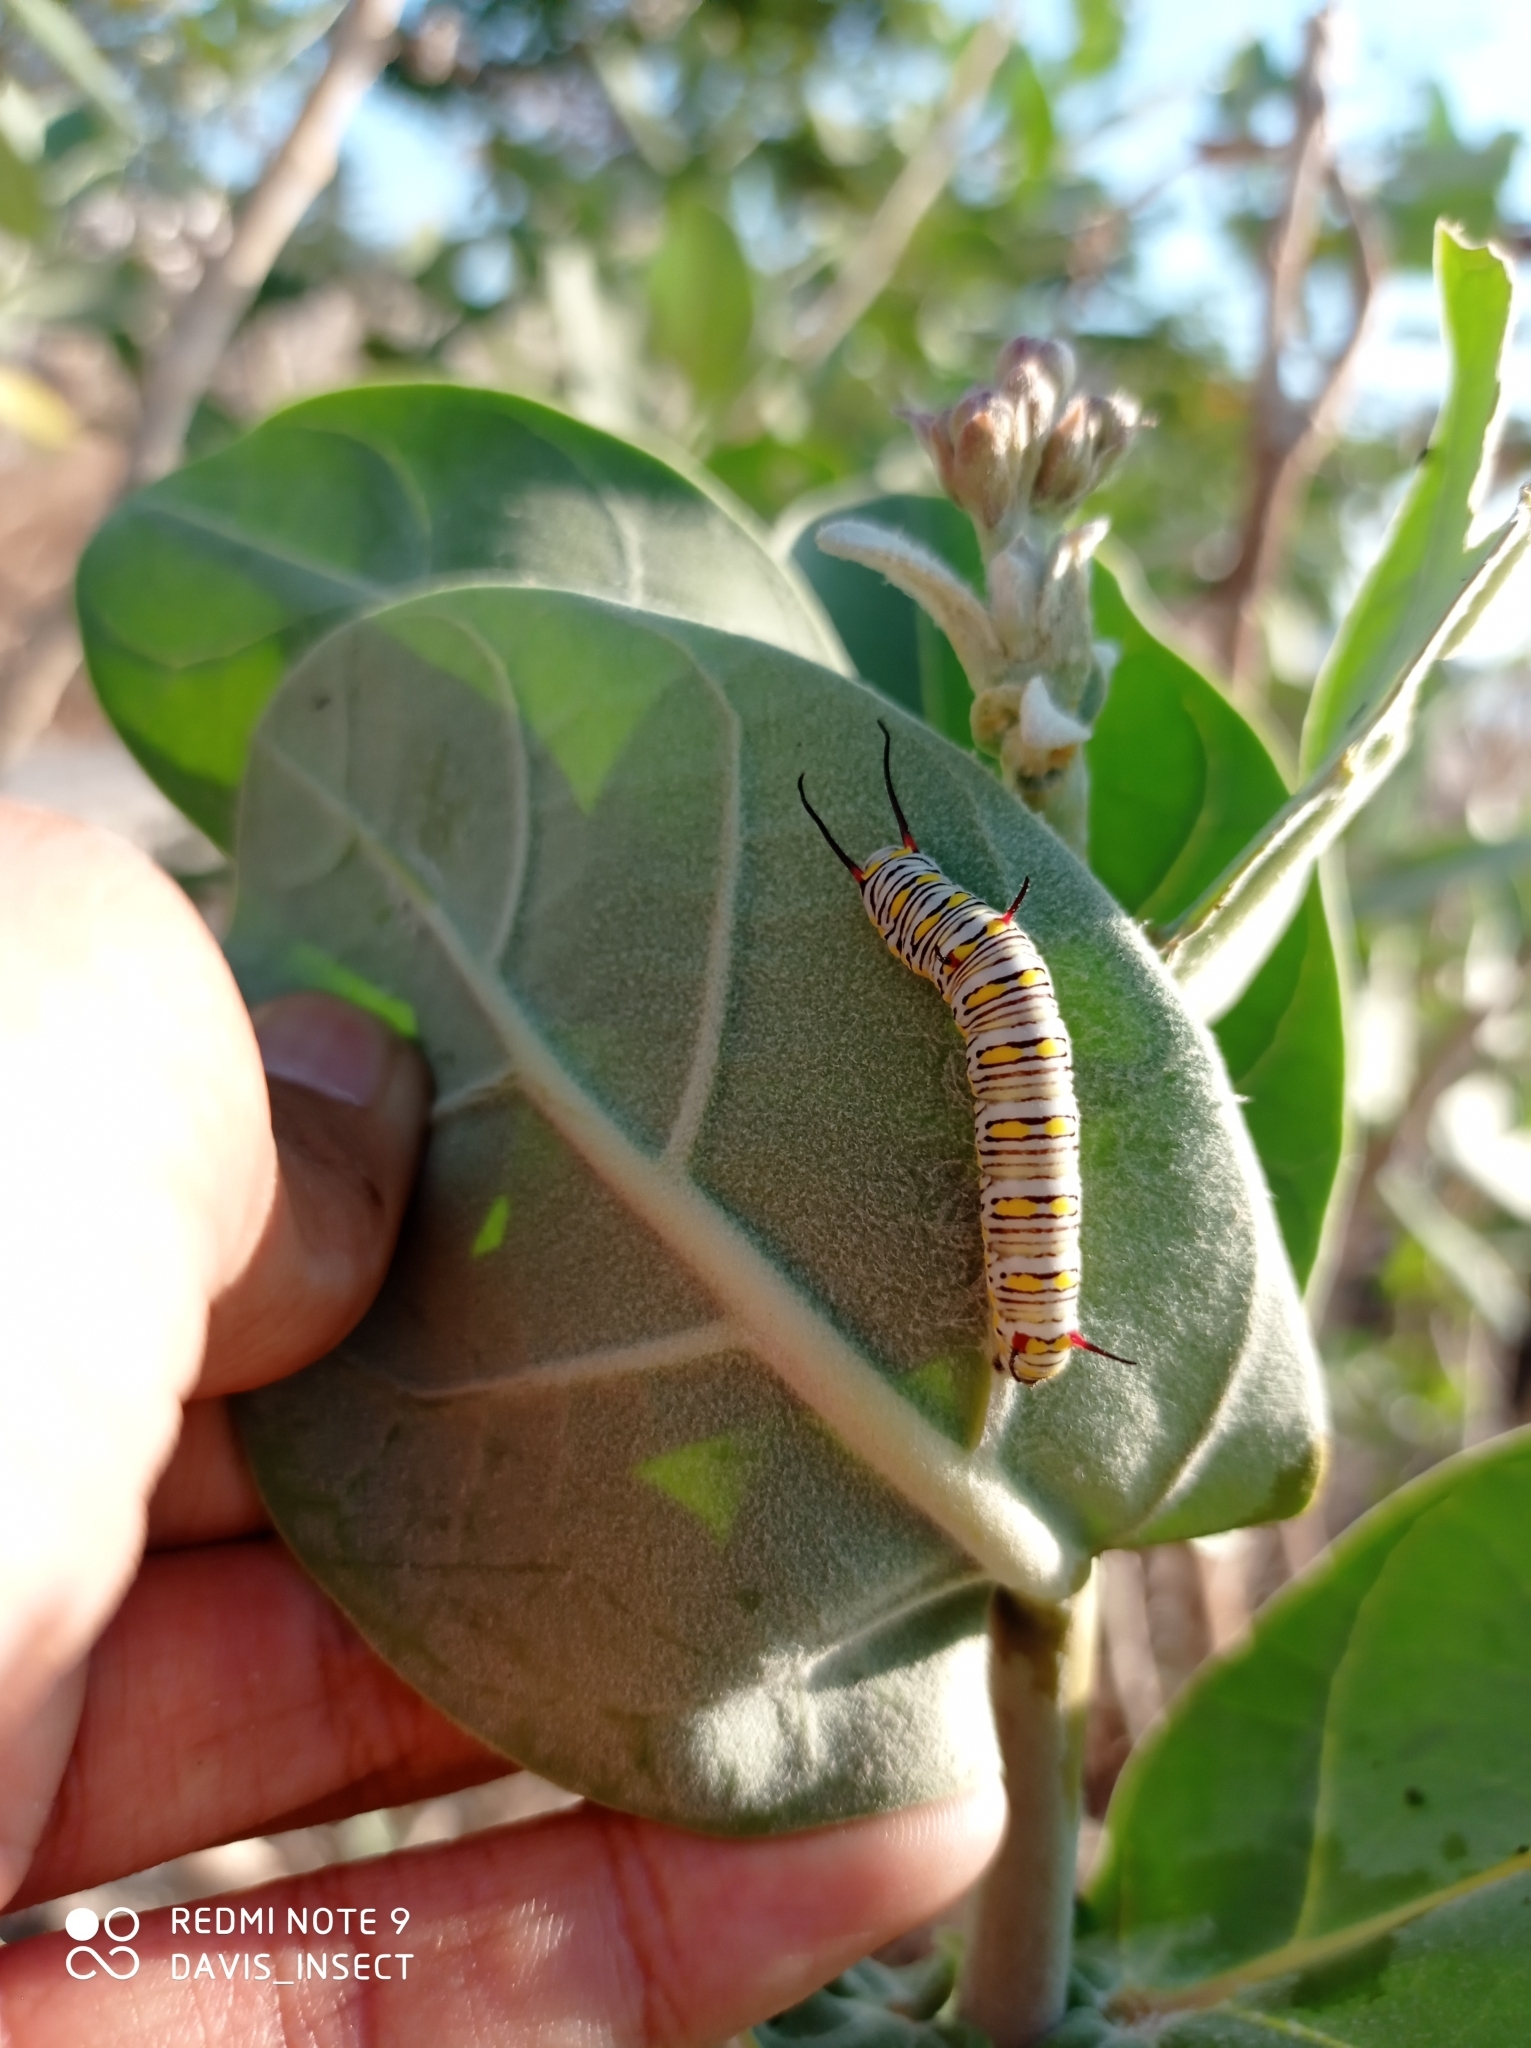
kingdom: Animalia
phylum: Arthropoda
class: Insecta
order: Lepidoptera
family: Nymphalidae
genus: Danaus
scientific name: Danaus chrysippus
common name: Plain tiger
